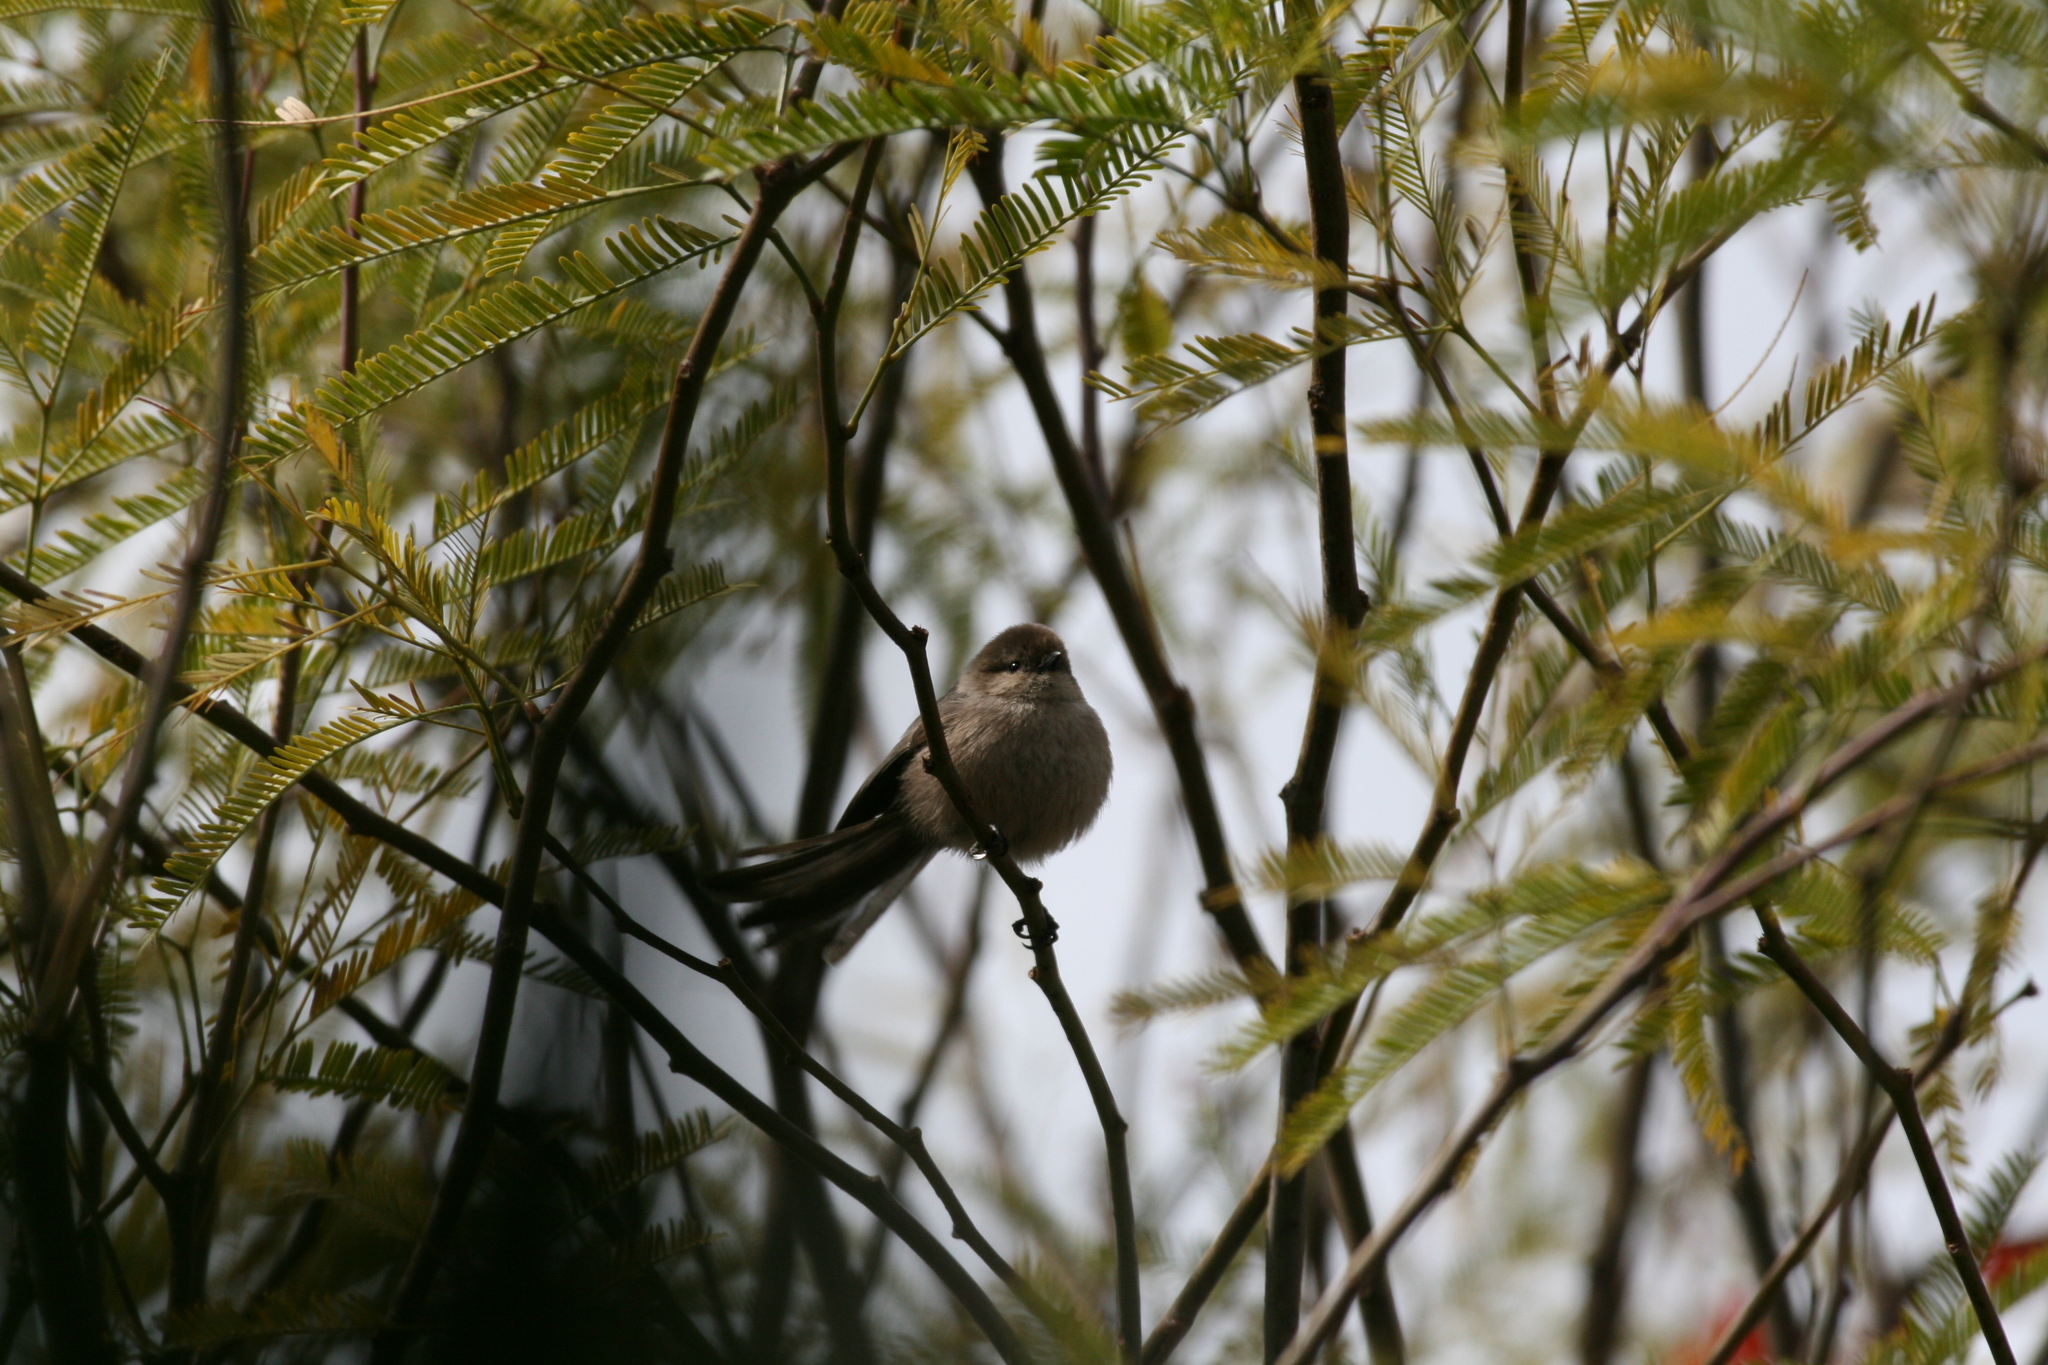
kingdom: Animalia
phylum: Chordata
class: Aves
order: Passeriformes
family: Aegithalidae
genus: Psaltriparus
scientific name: Psaltriparus minimus
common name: American bushtit
